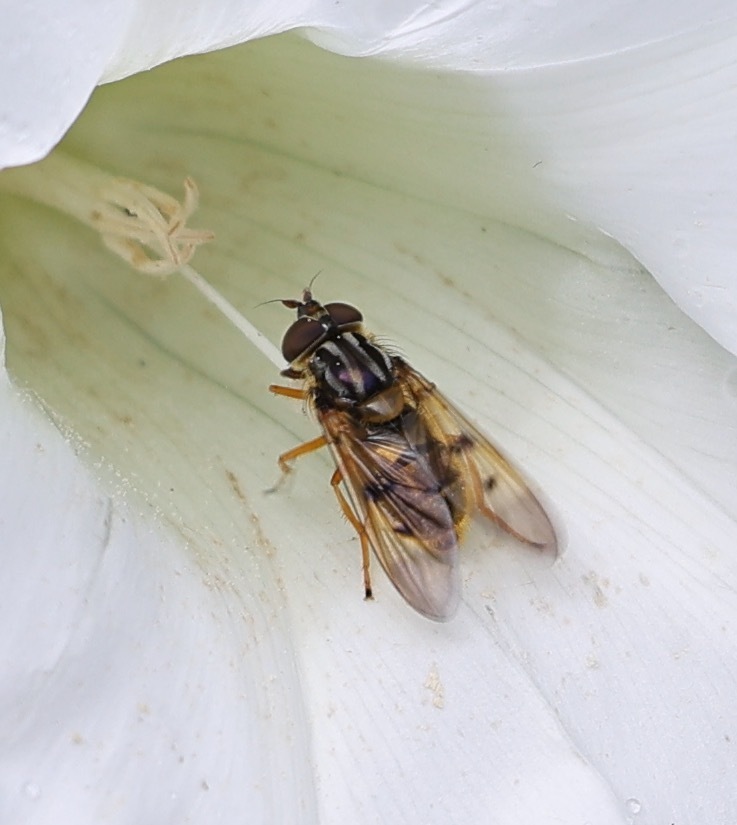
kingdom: Animalia
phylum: Arthropoda
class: Insecta
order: Diptera
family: Syrphidae
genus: Ferdinandea
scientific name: Ferdinandea cuprea
